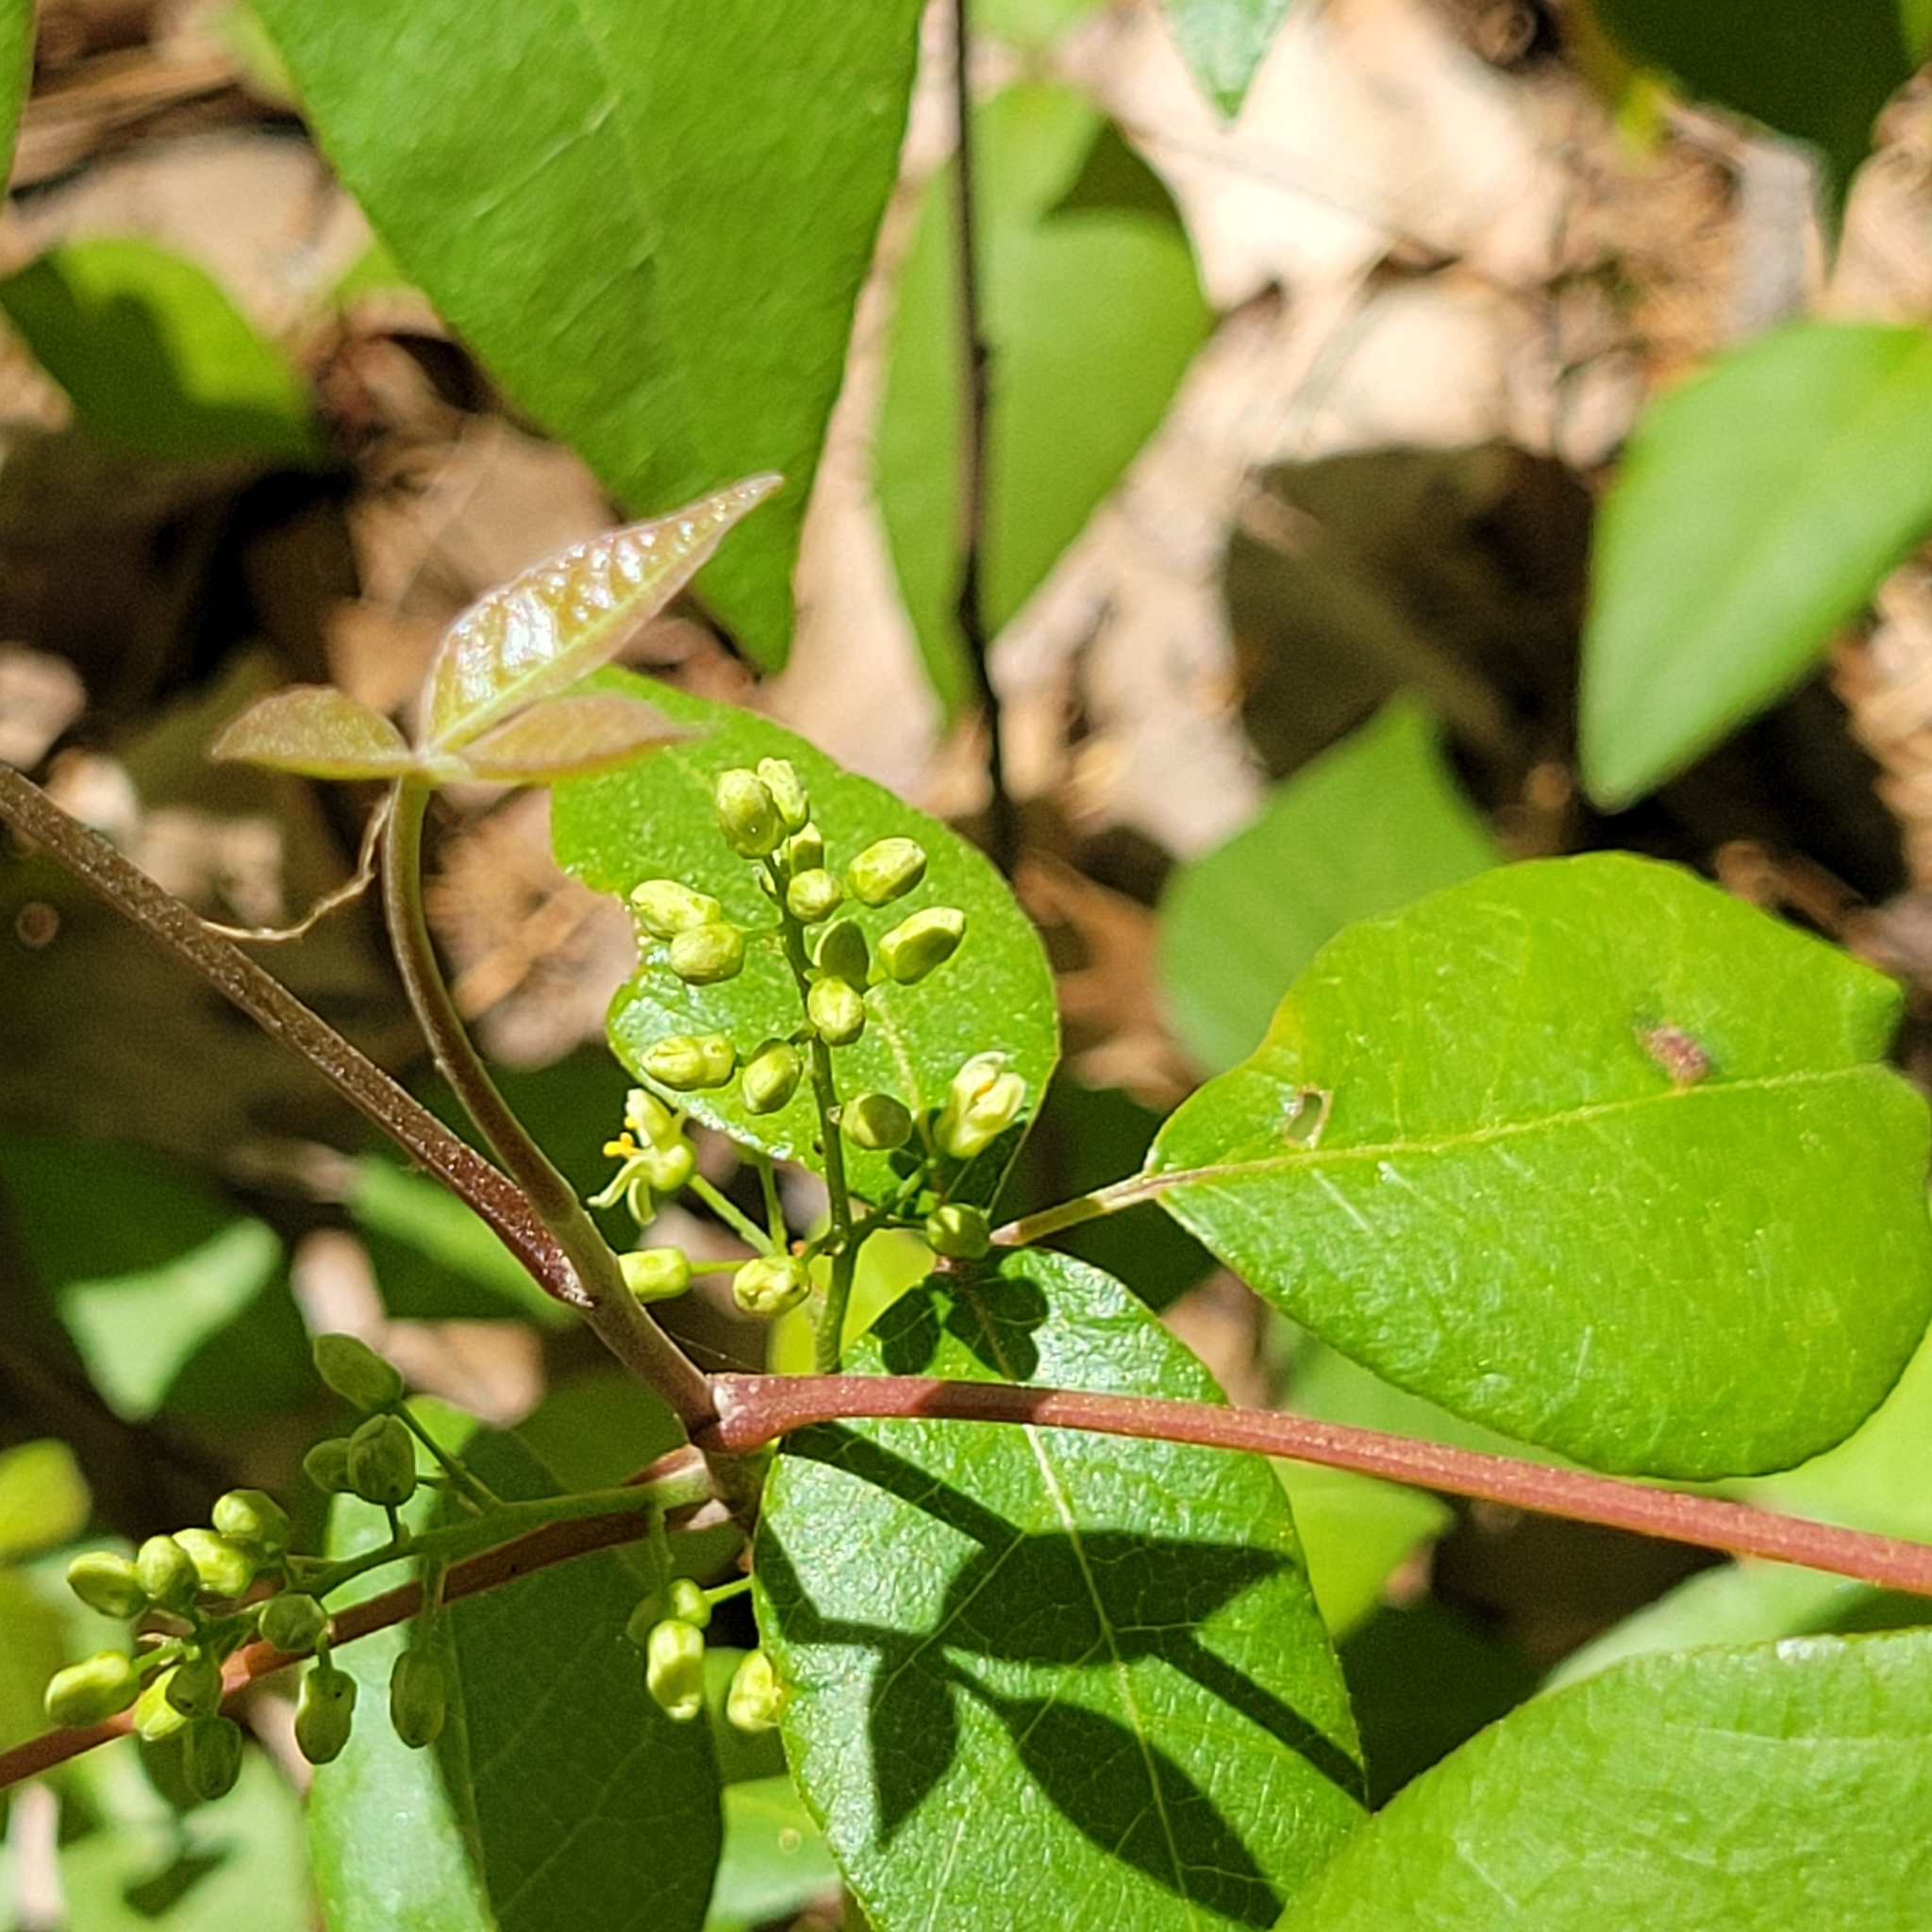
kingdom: Plantae
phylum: Tracheophyta
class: Magnoliopsida
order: Sapindales
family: Anacardiaceae
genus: Toxicodendron
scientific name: Toxicodendron radicans
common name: Poison ivy
